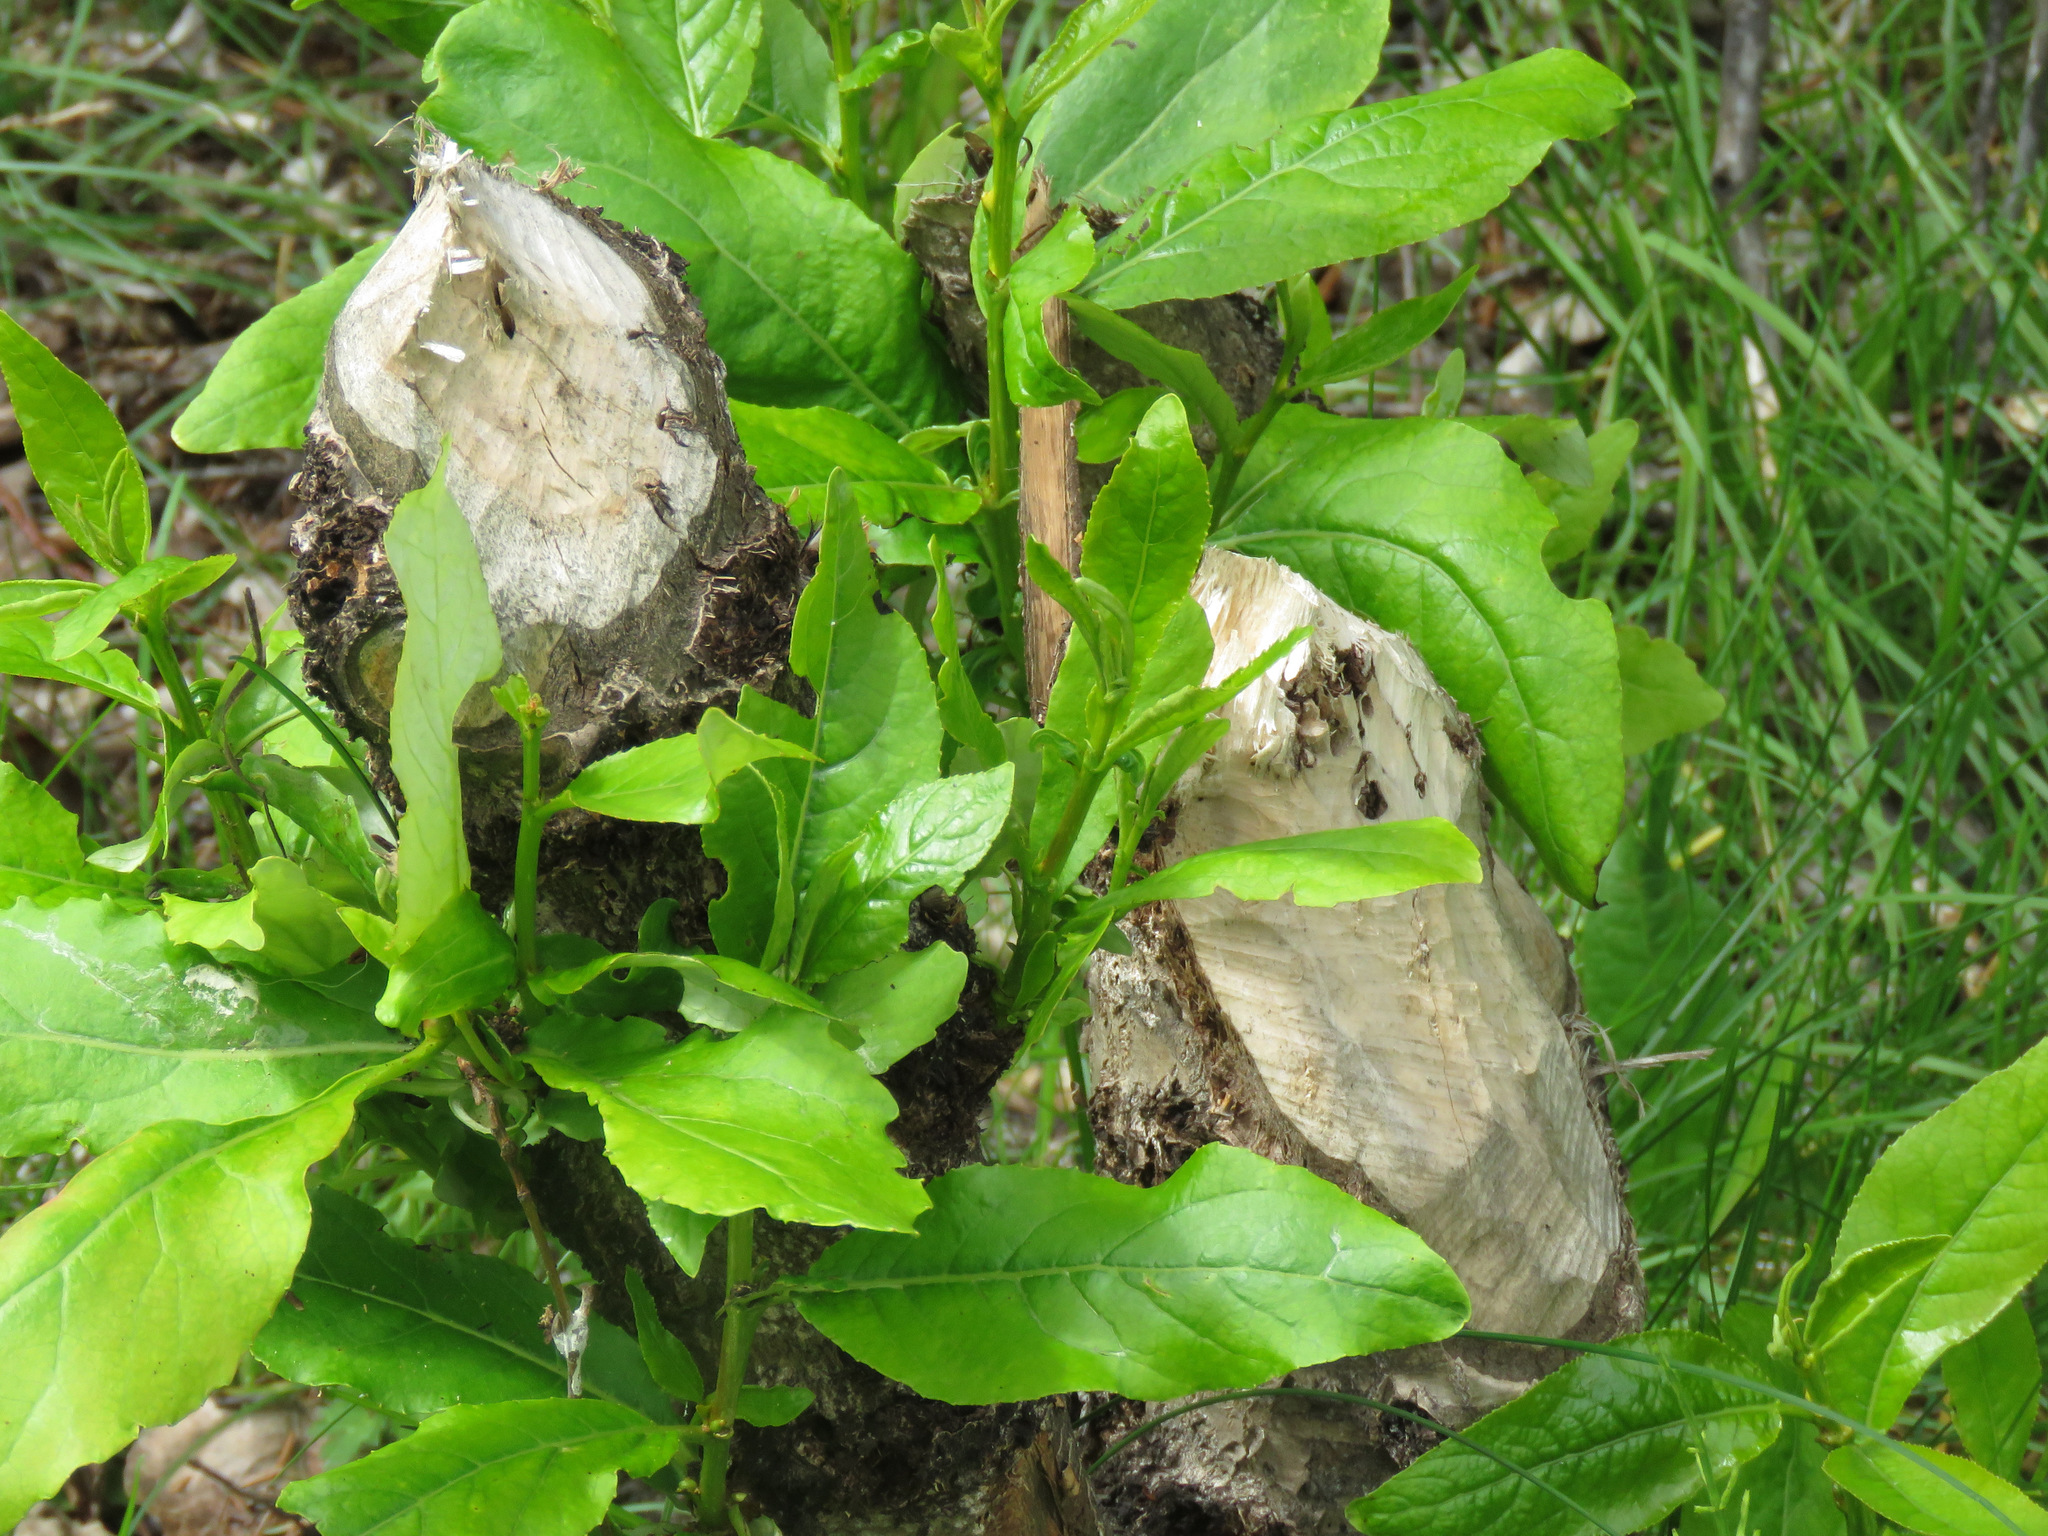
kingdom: Animalia
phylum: Chordata
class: Mammalia
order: Rodentia
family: Castoridae
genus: Castor
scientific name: Castor canadensis
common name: American beaver
